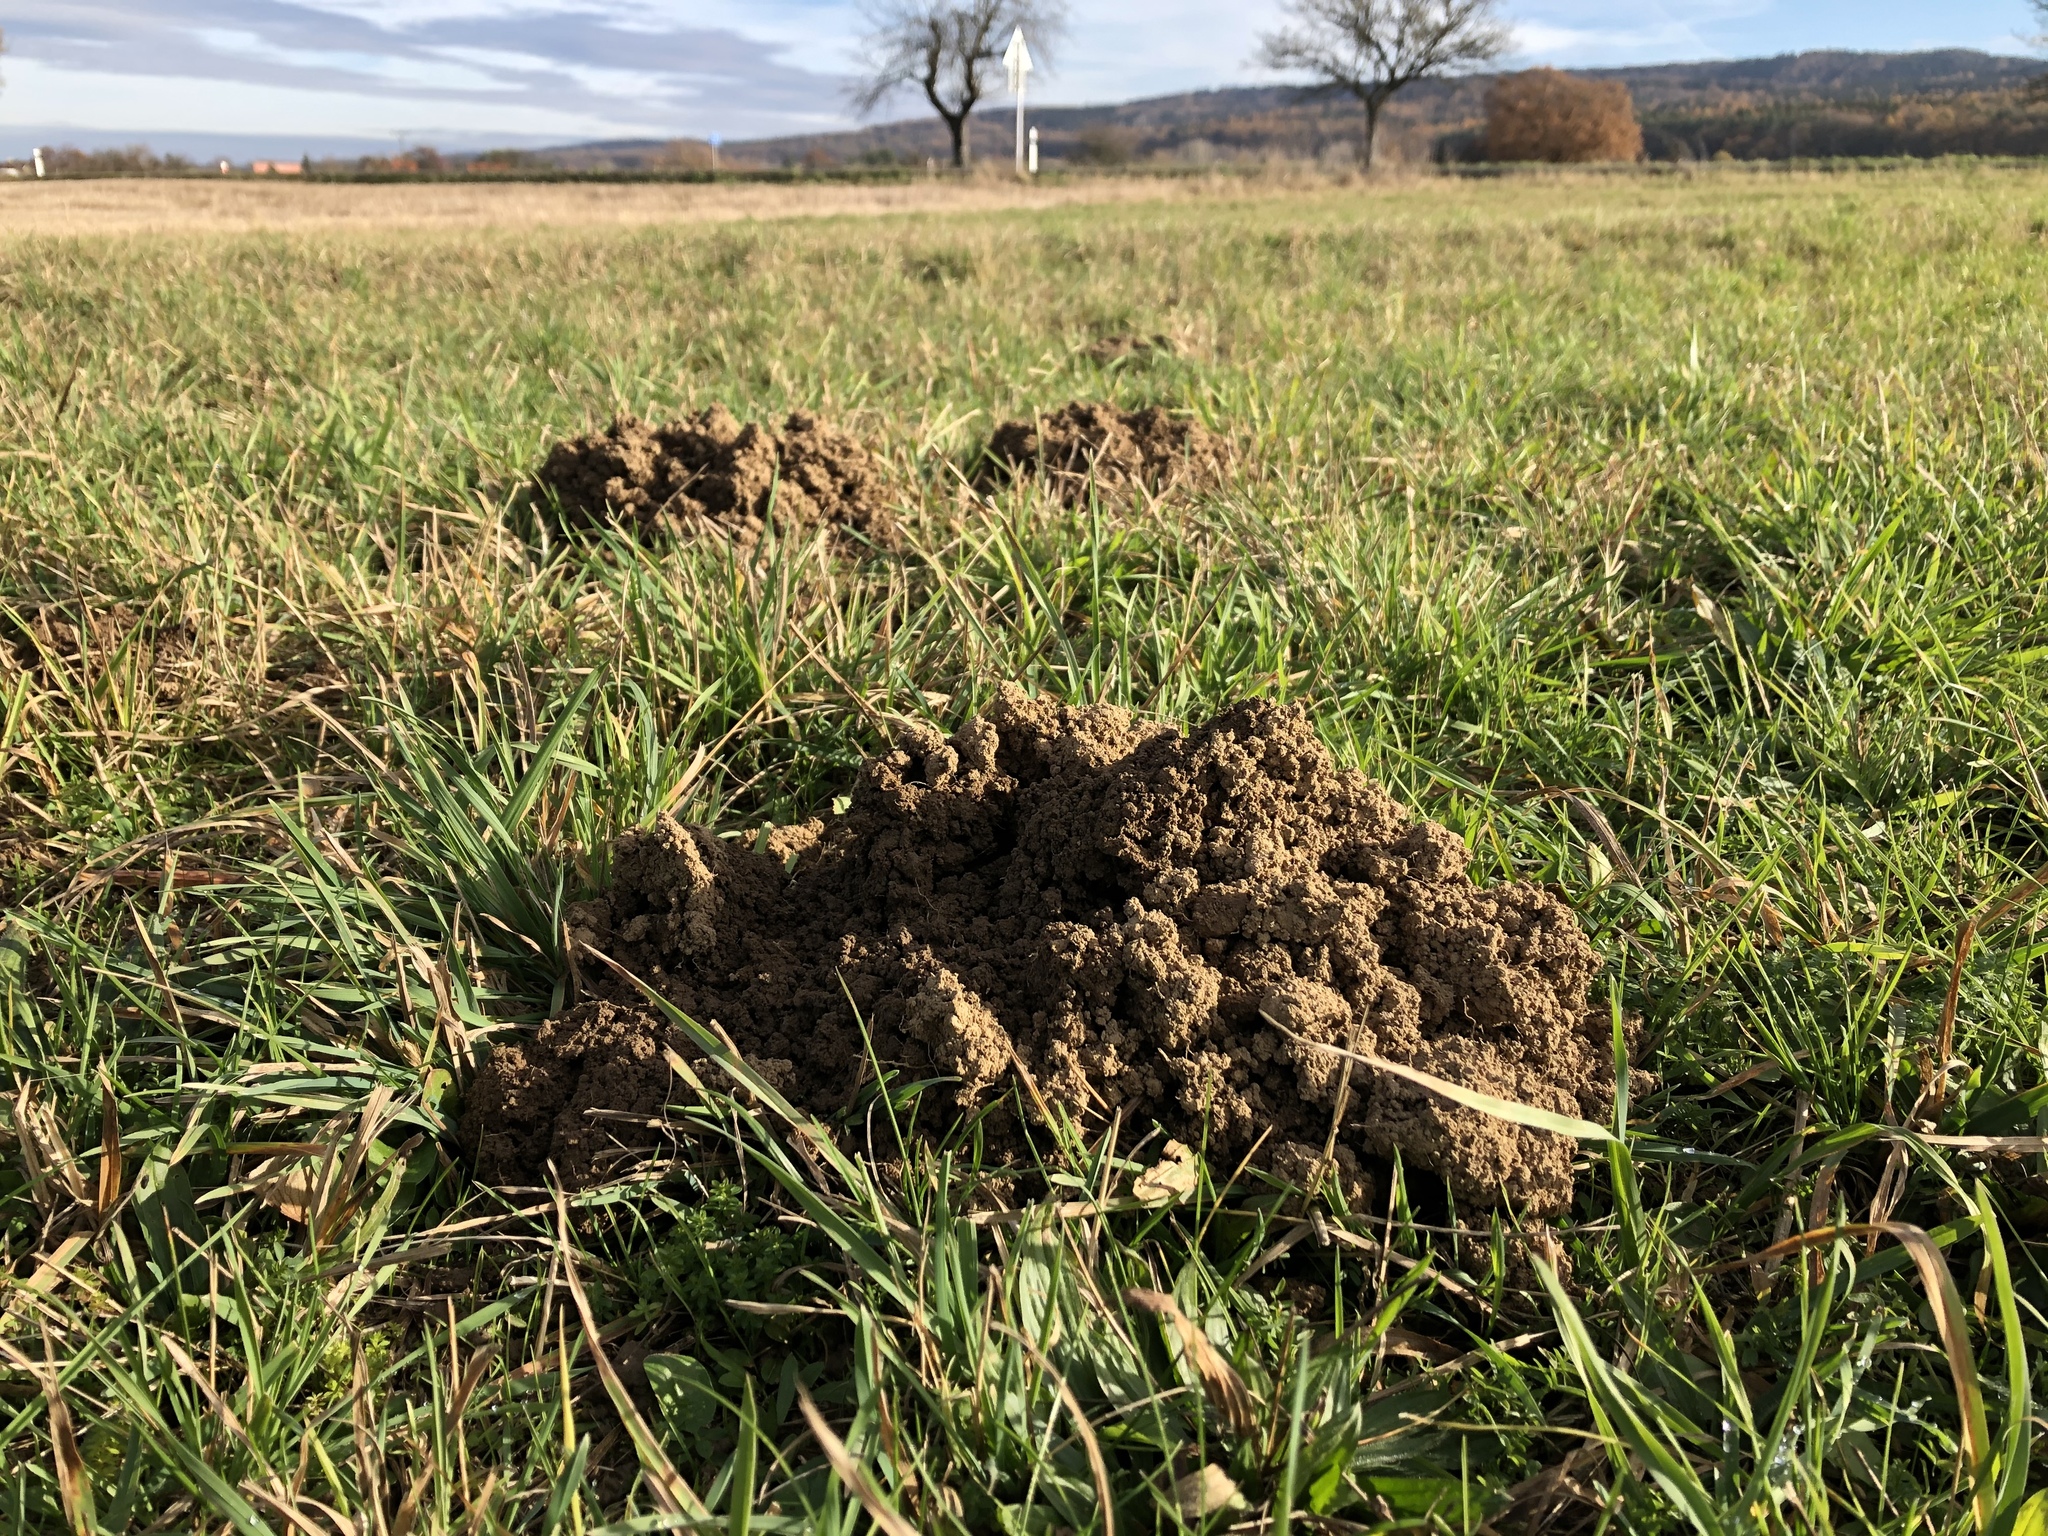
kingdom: Animalia
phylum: Chordata
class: Mammalia
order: Soricomorpha
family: Talpidae
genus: Talpa
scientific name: Talpa europaea
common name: European mole
